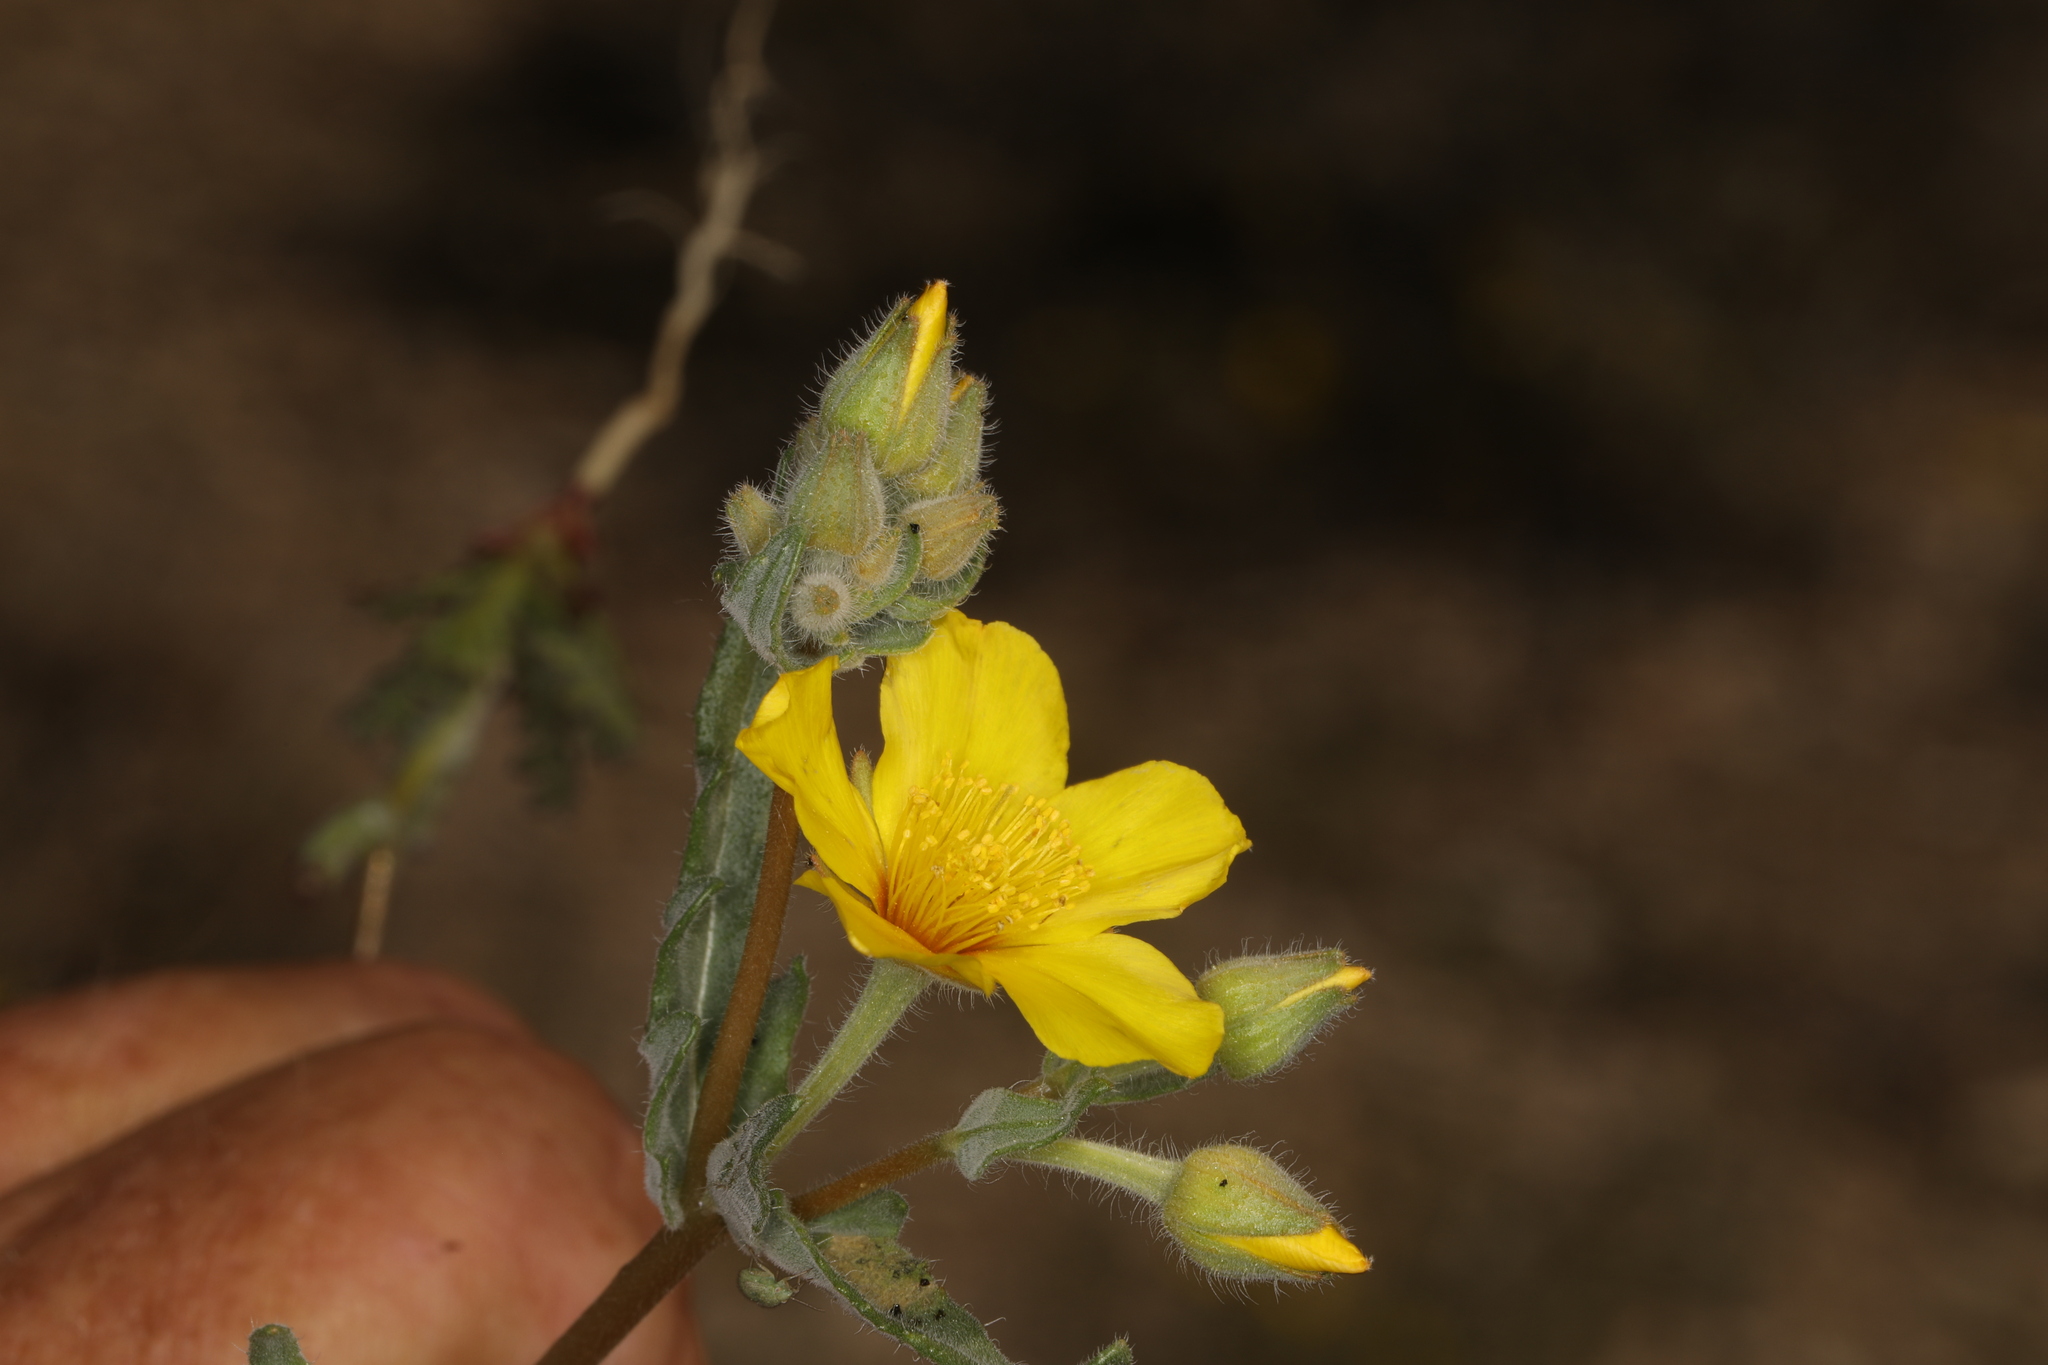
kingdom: Plantae
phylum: Tracheophyta
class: Magnoliopsida
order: Cornales
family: Loasaceae
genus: Mentzelia
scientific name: Mentzelia nitens
